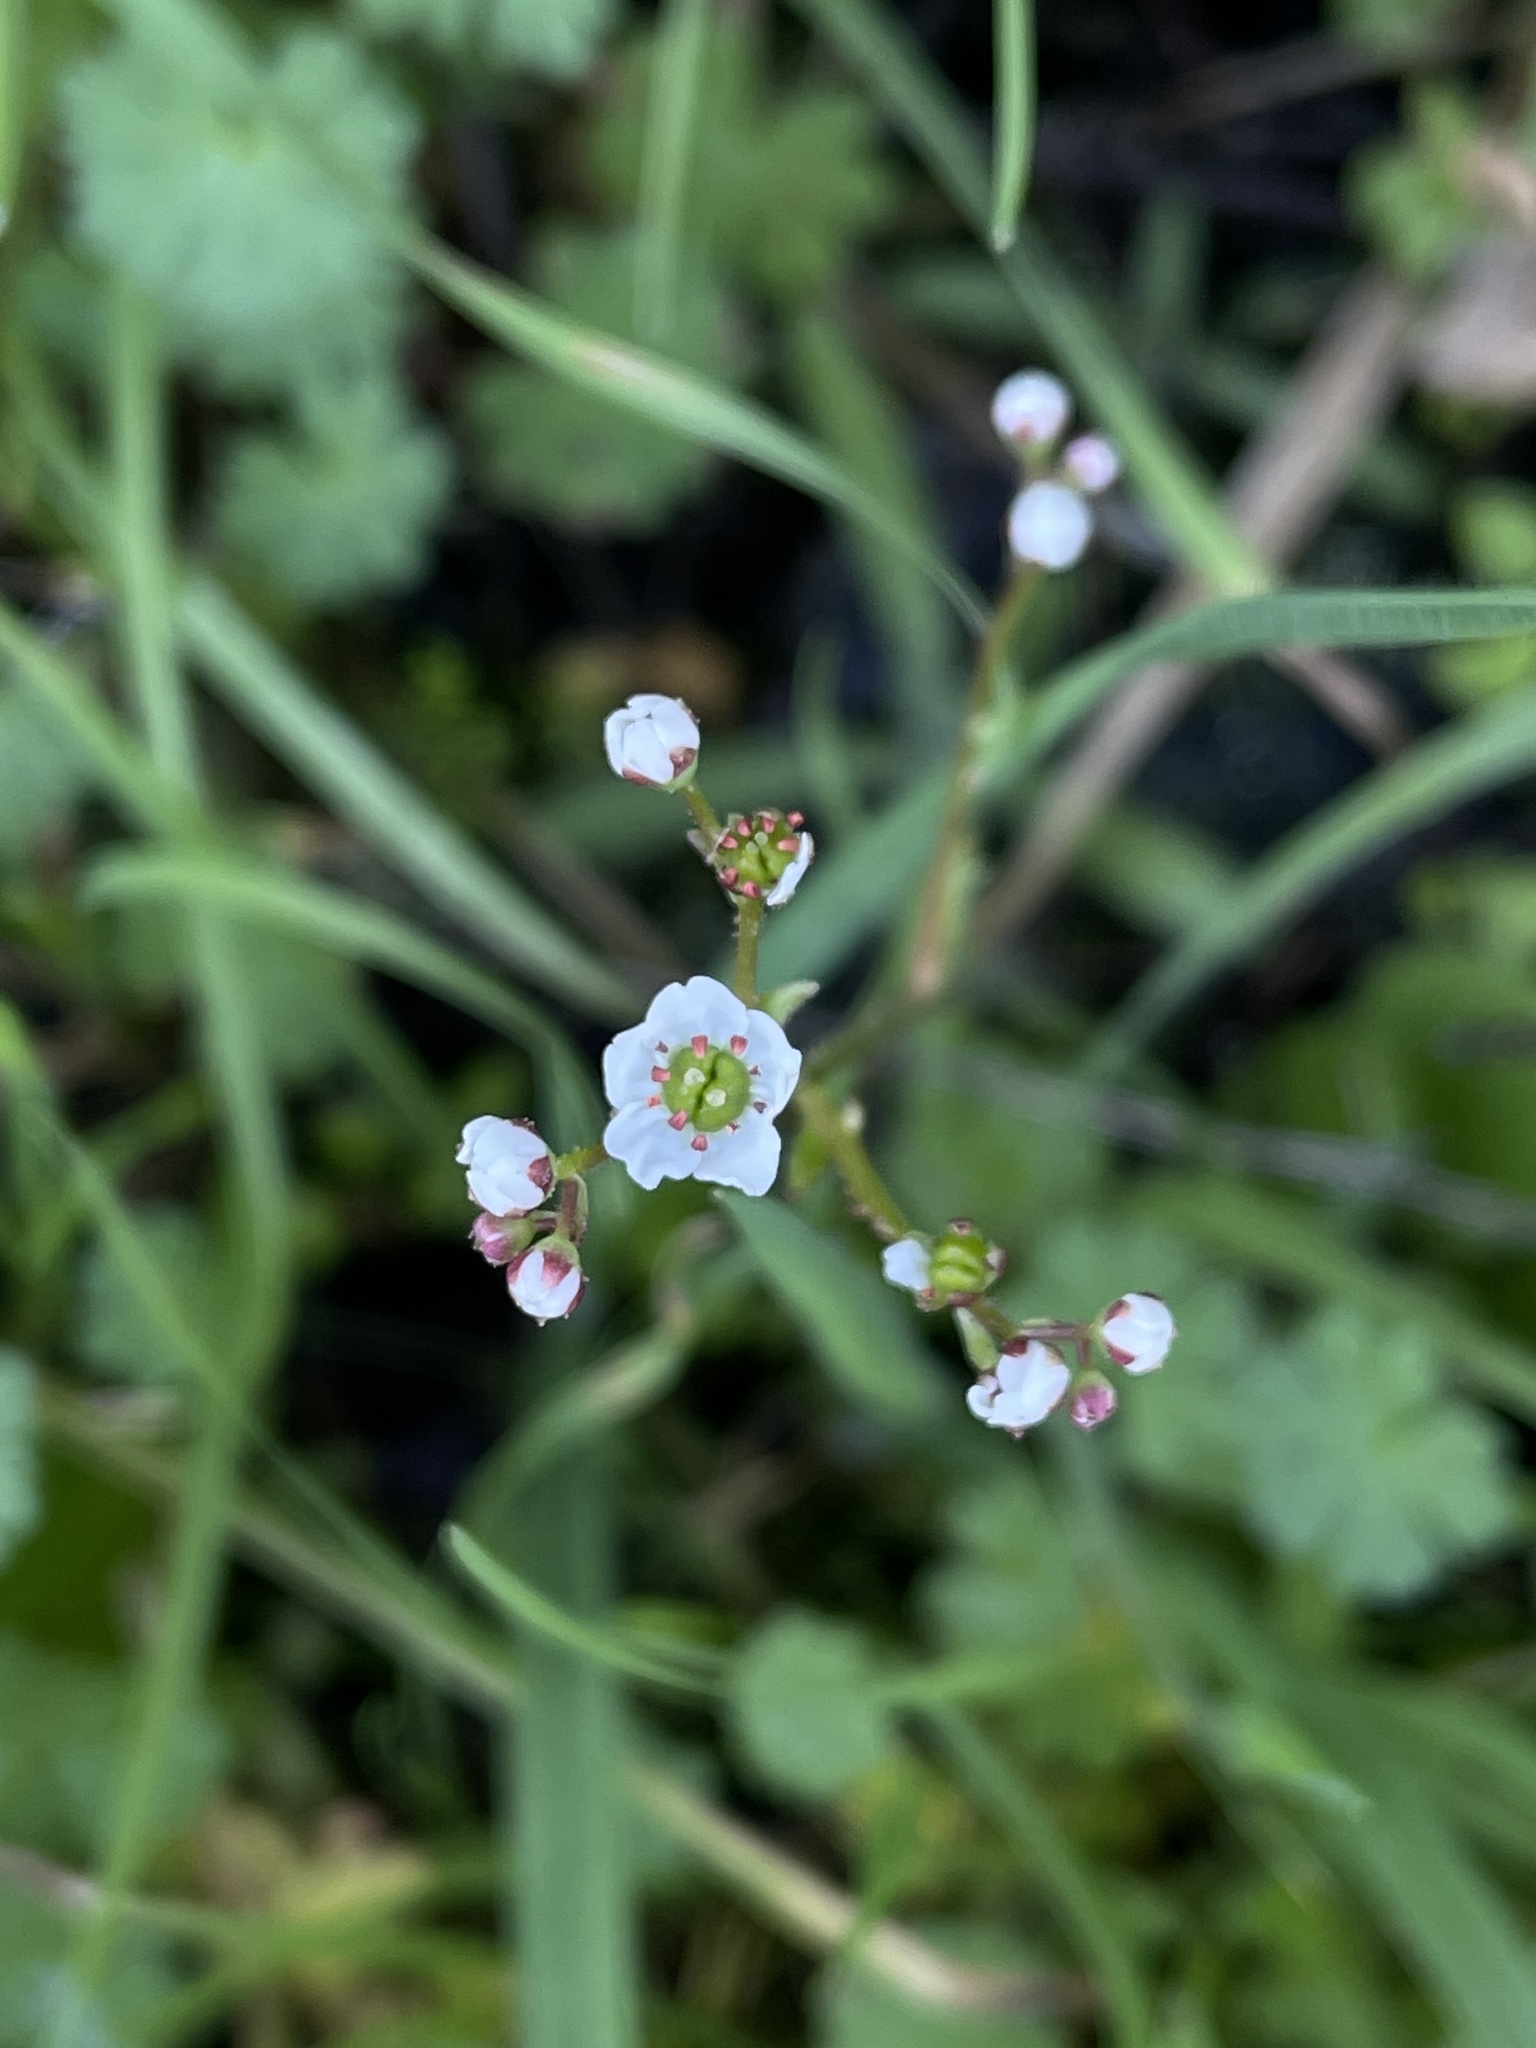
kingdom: Plantae
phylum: Tracheophyta
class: Magnoliopsida
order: Saxifragales
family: Saxifragaceae
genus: Micranthes
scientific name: Micranthes californica
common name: California saxifrage
